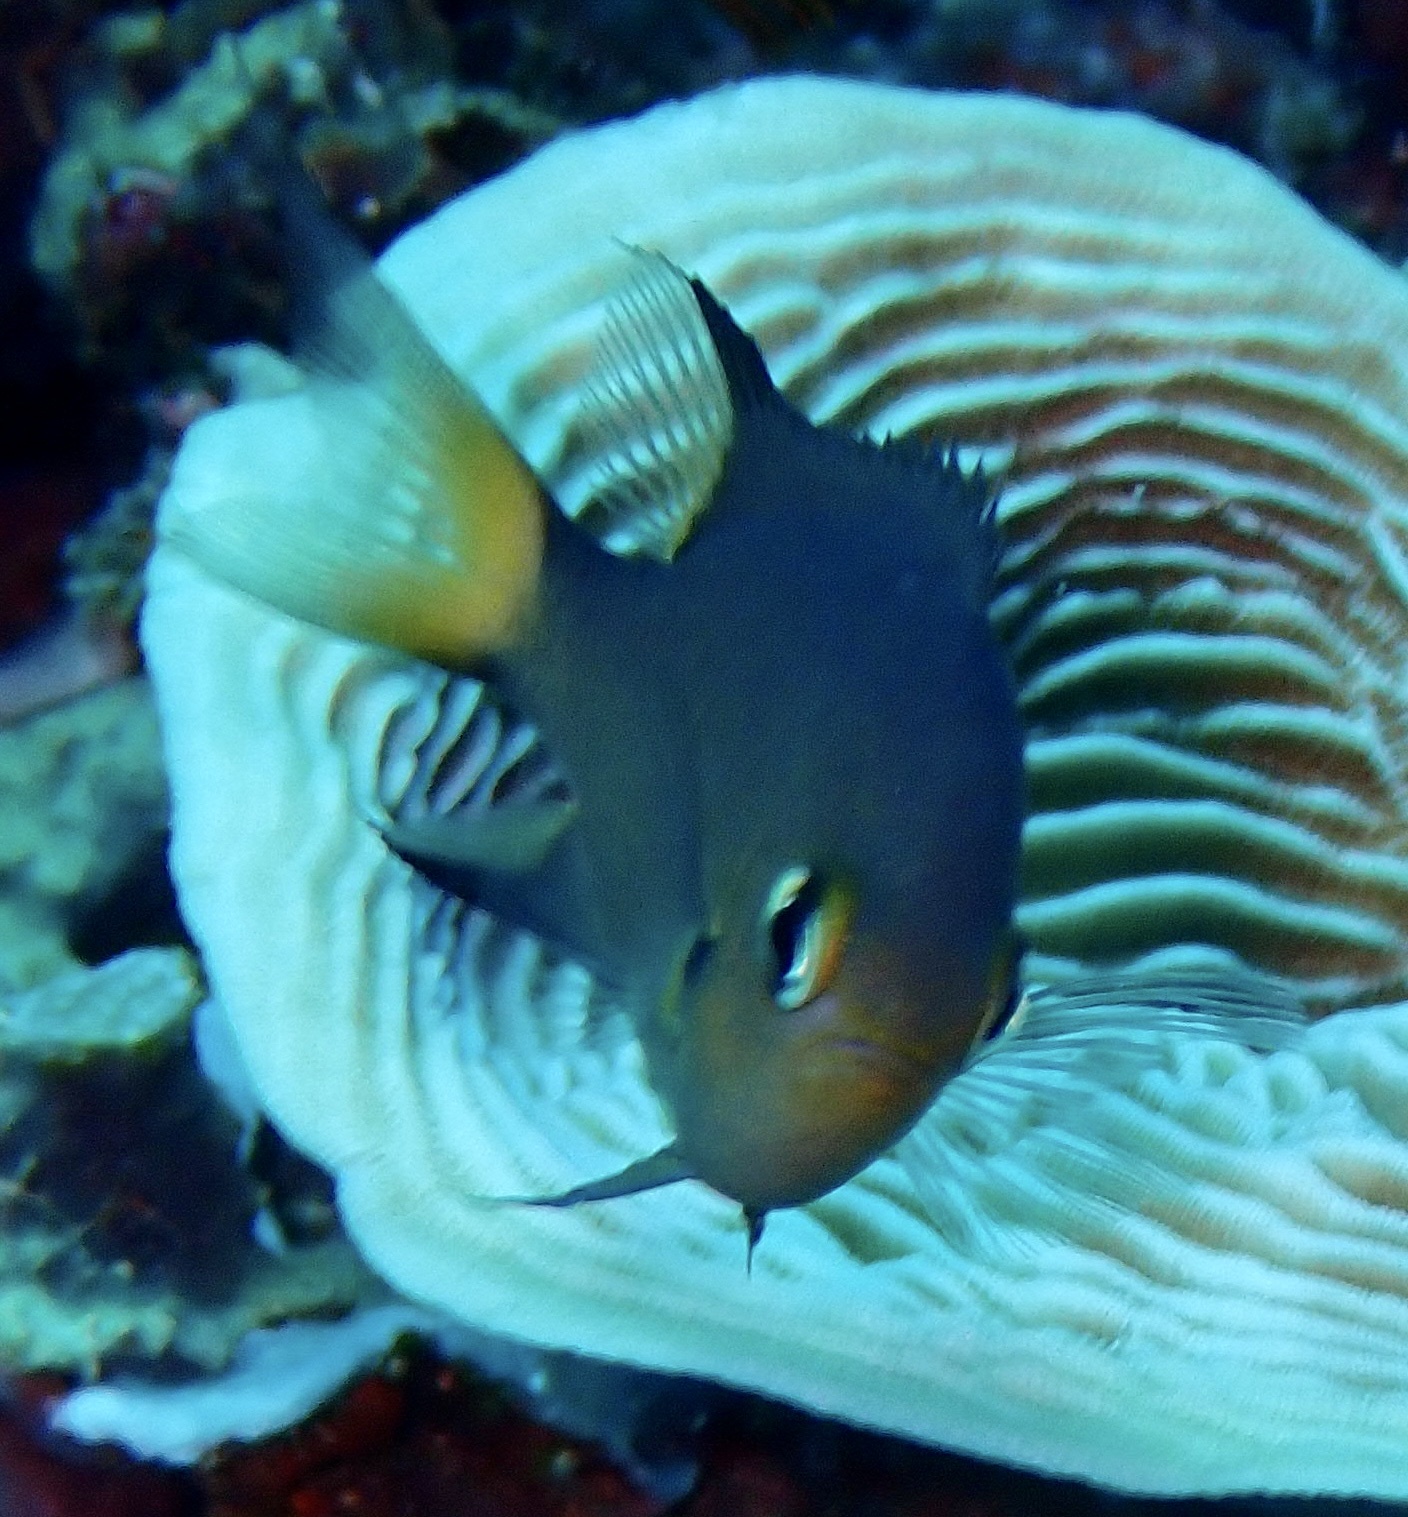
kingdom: Animalia
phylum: Chordata
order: Perciformes
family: Pomacentridae
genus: Chromis
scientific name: Chromis atripes
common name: Dark-fin chromis
